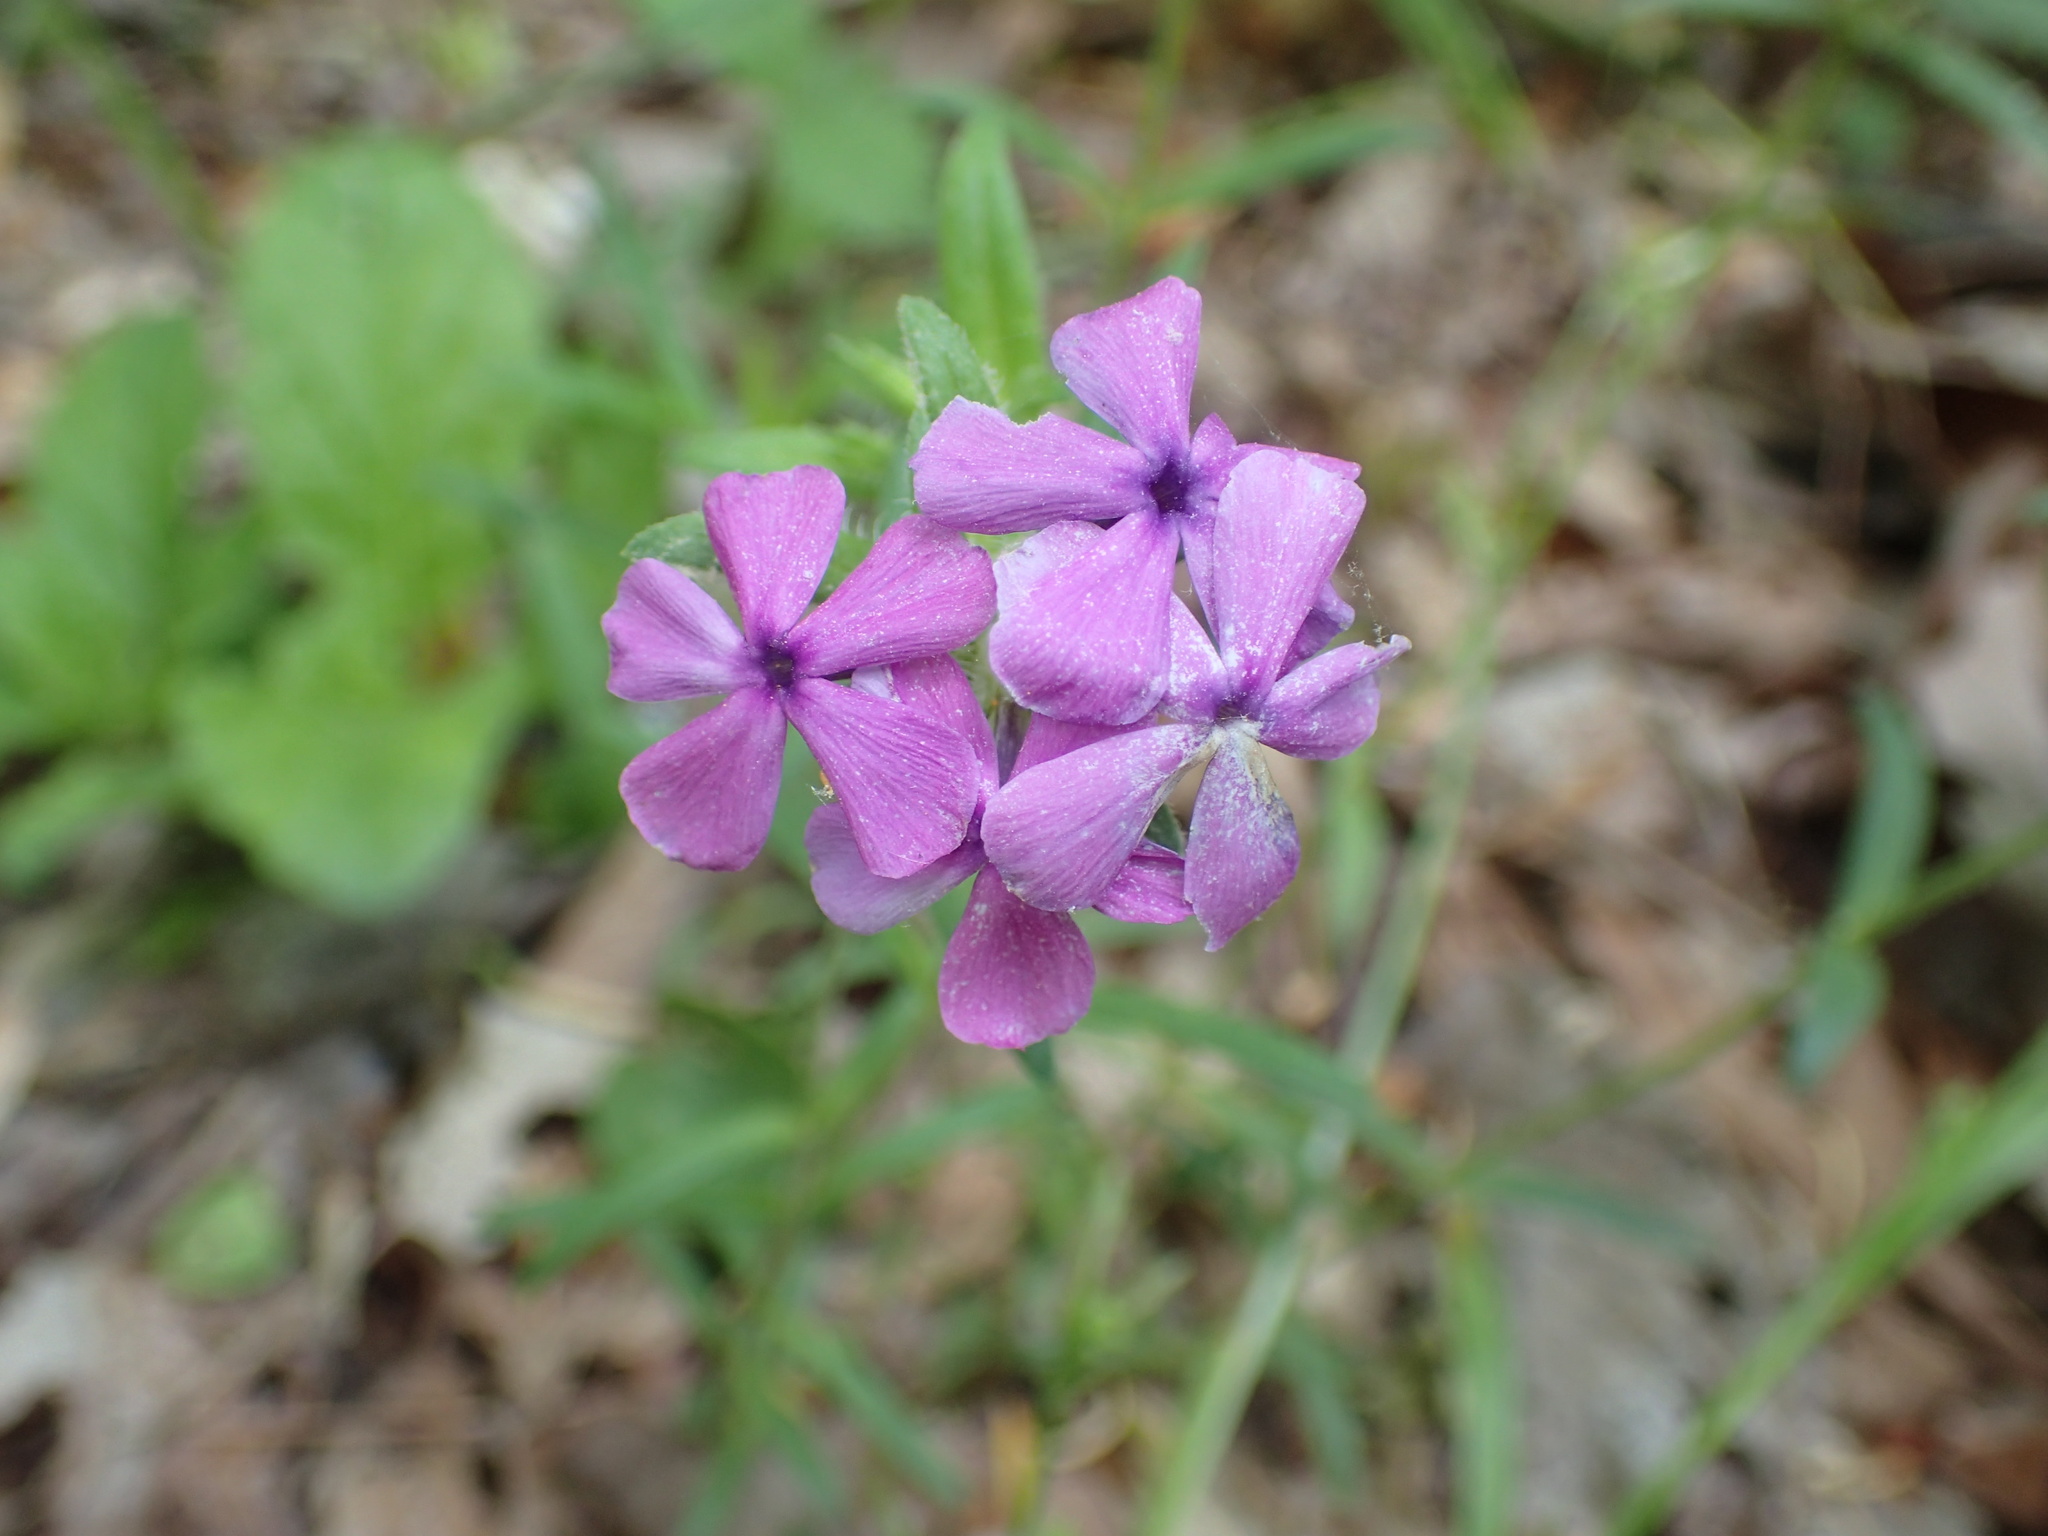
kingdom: Plantae
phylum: Tracheophyta
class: Magnoliopsida
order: Ericales
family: Polemoniaceae
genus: Phlox
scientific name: Phlox amoena
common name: Hairy phlox
